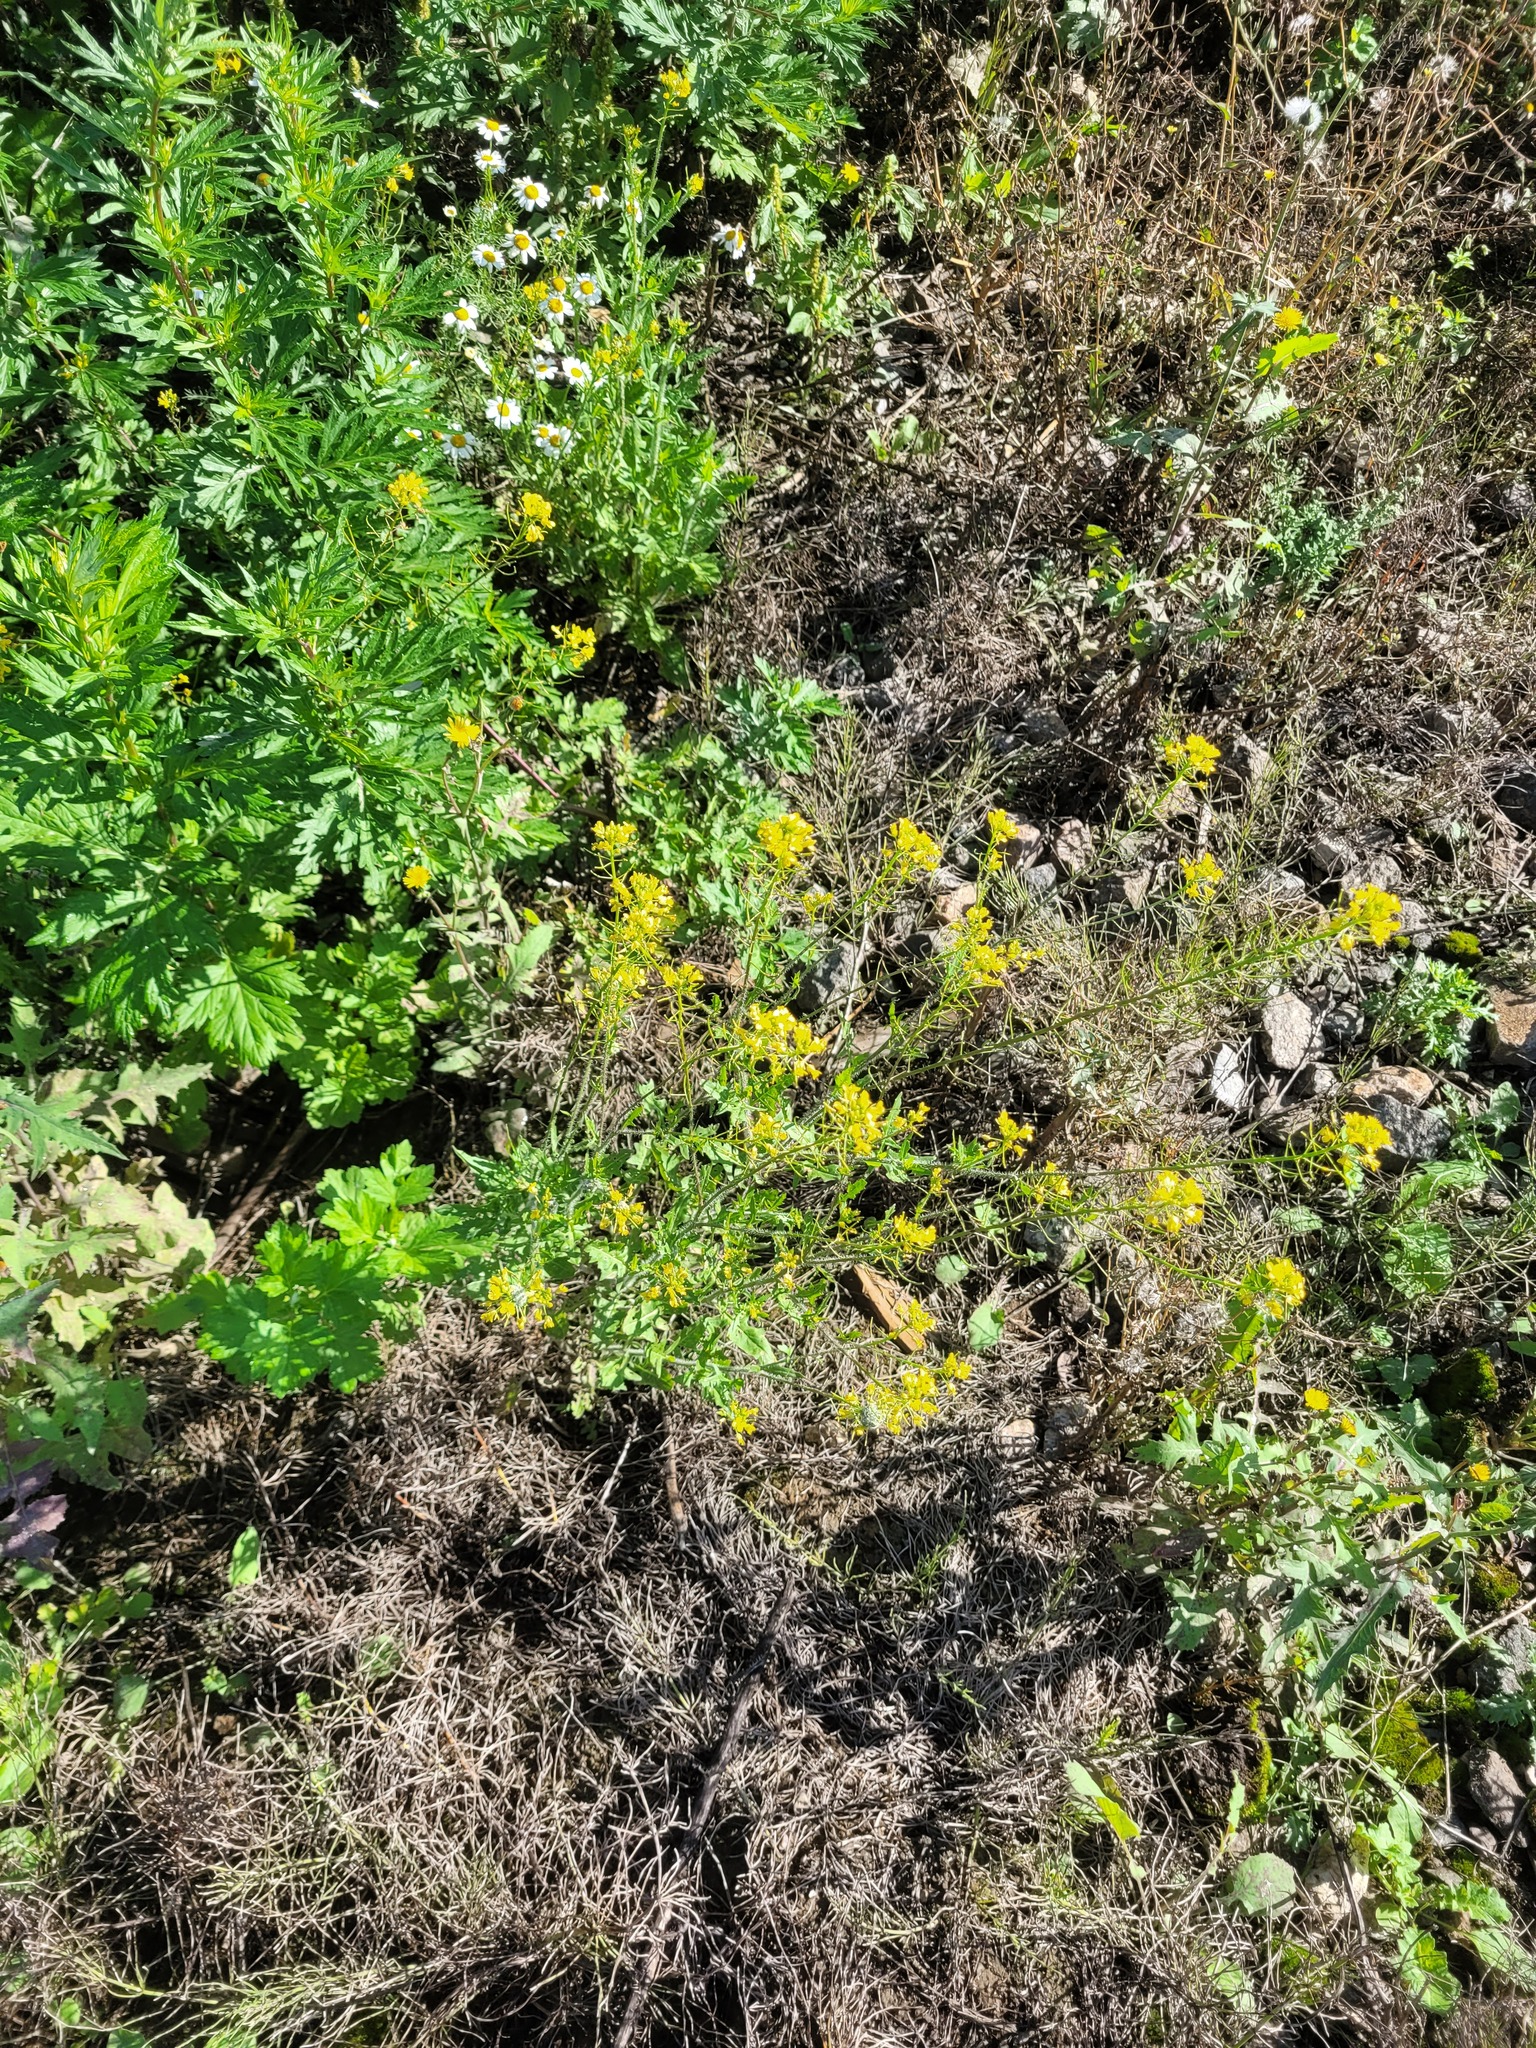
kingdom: Plantae
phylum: Tracheophyta
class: Magnoliopsida
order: Brassicales
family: Brassicaceae
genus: Sisymbrium
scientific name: Sisymbrium loeselii
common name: False london-rocket
